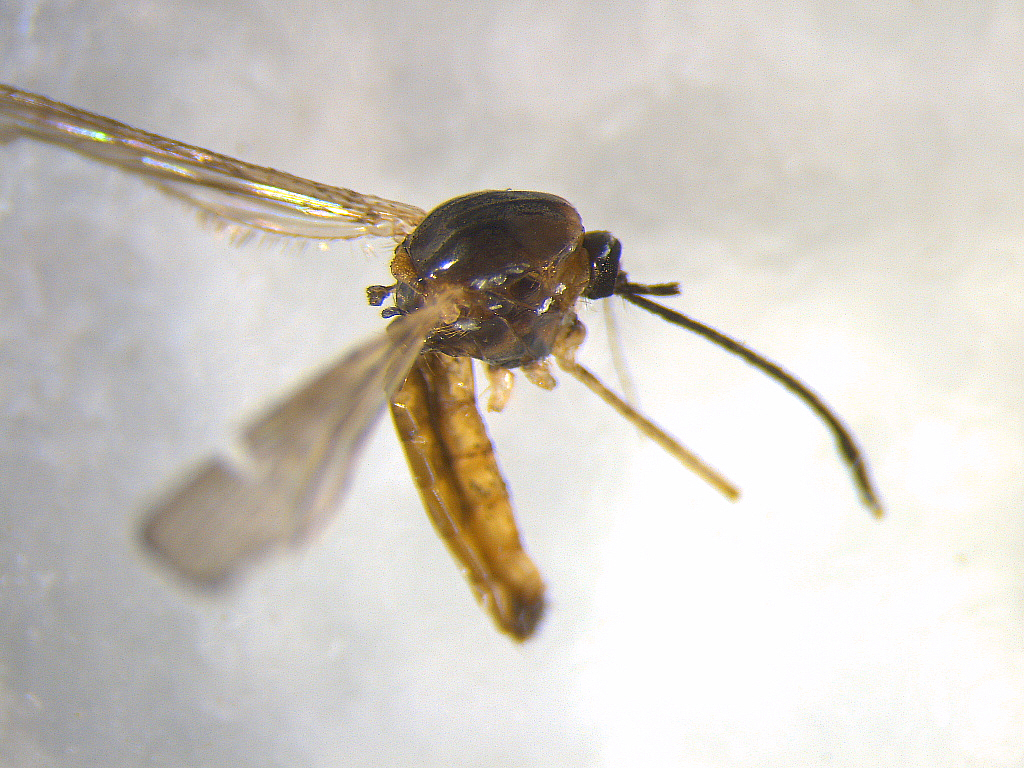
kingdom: Animalia
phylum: Arthropoda
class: Insecta
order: Diptera
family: Culicidae
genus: Maorigoeldia
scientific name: Maorigoeldia argyropus
